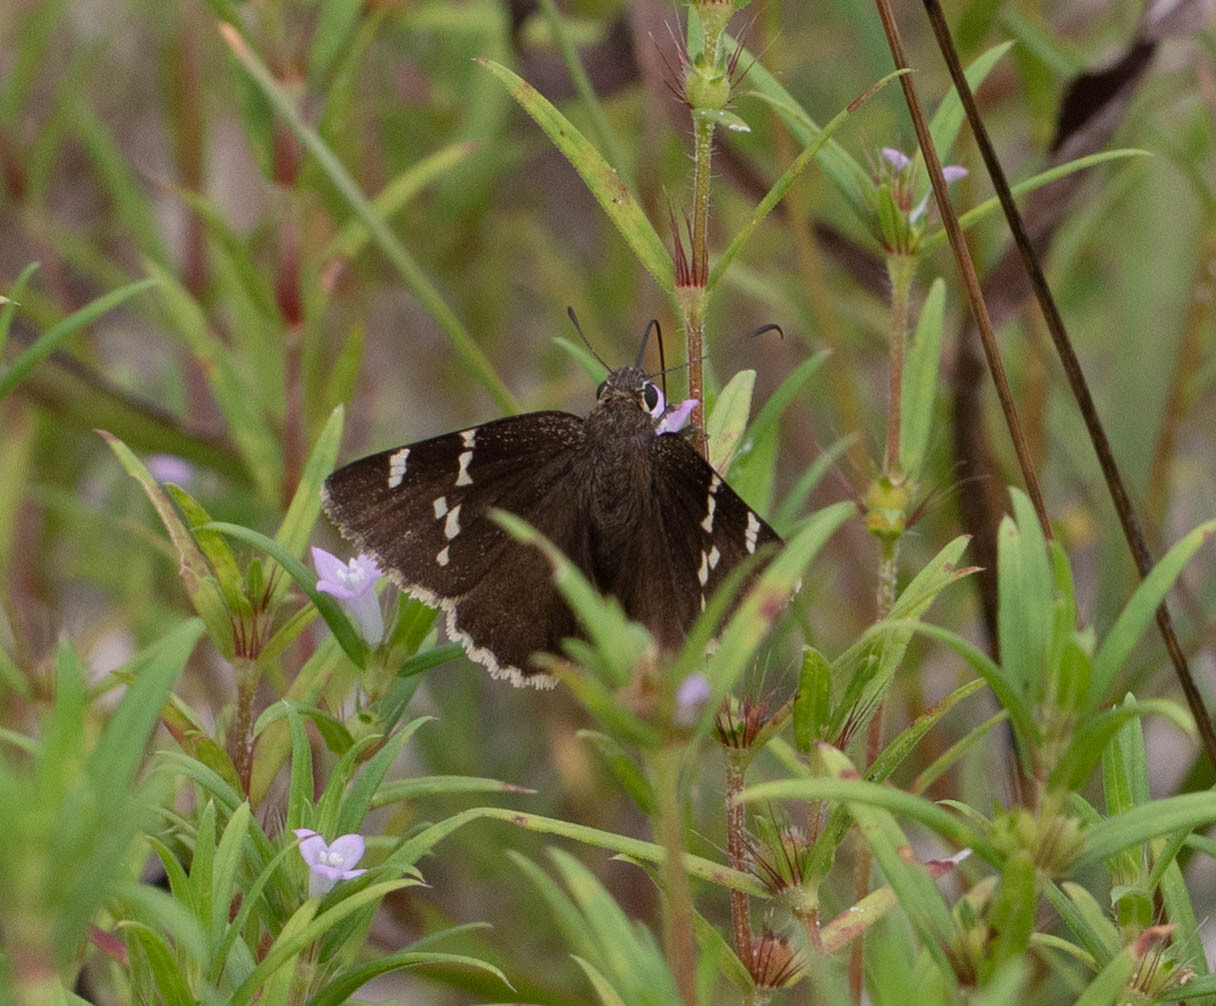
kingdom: Animalia
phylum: Arthropoda
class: Insecta
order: Lepidoptera
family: Hesperiidae
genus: Thorybes
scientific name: Thorybes daunus
